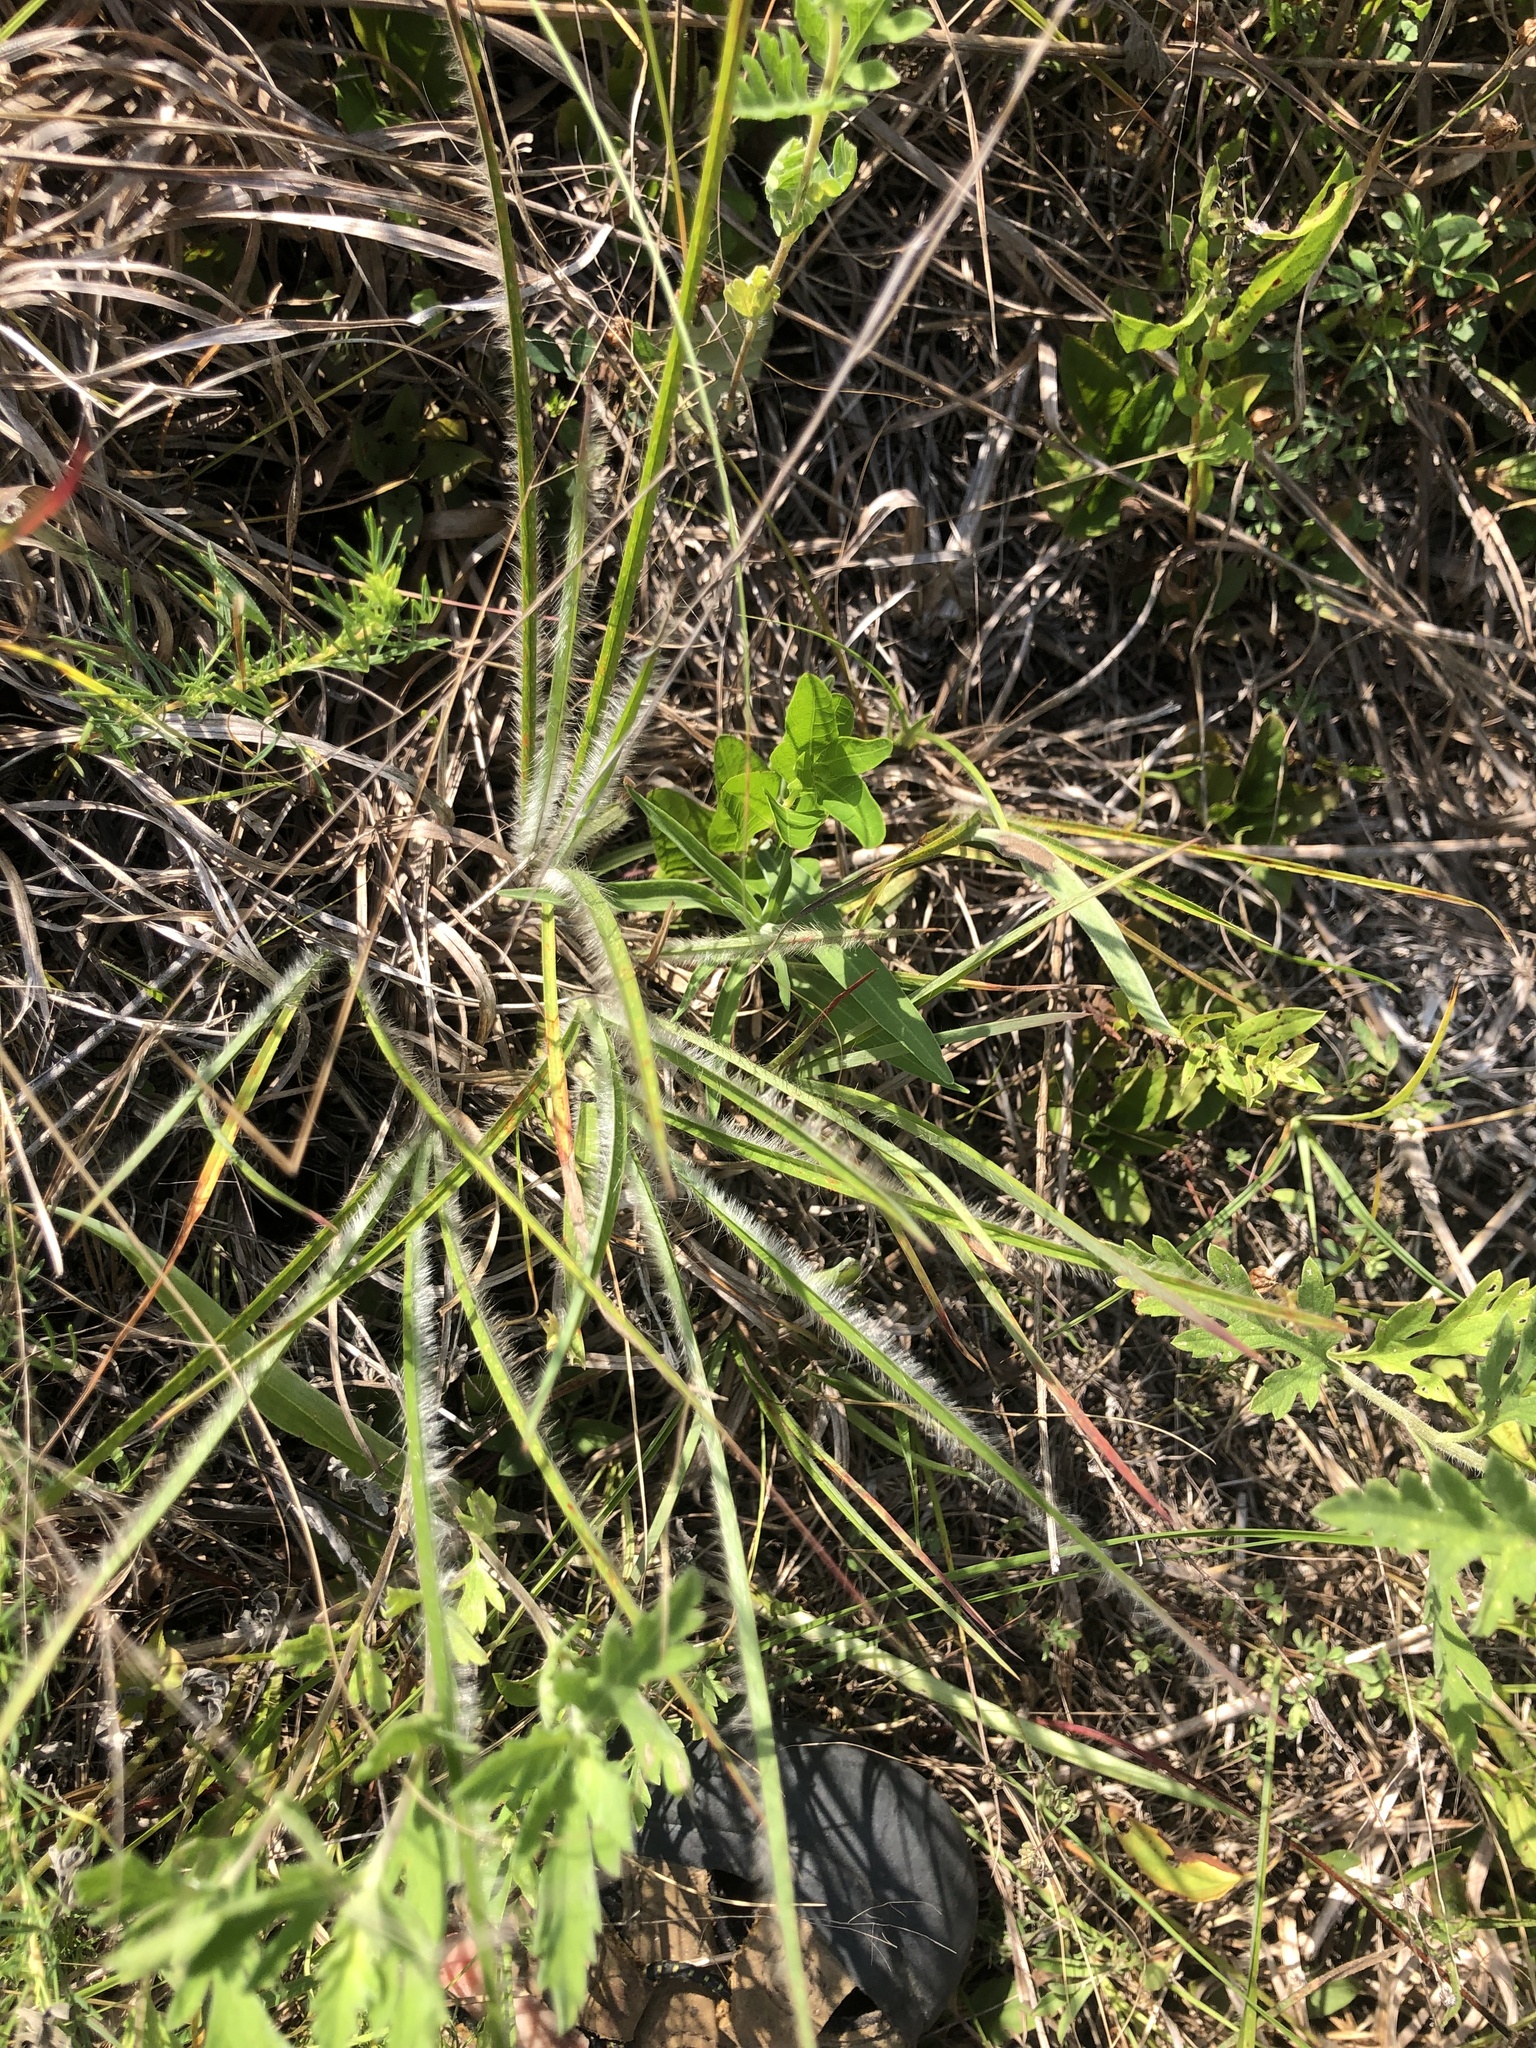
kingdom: Plantae
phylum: Tracheophyta
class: Liliopsida
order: Poales
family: Poaceae
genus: Paspalum
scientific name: Paspalum floridanum
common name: Florida paspalum
